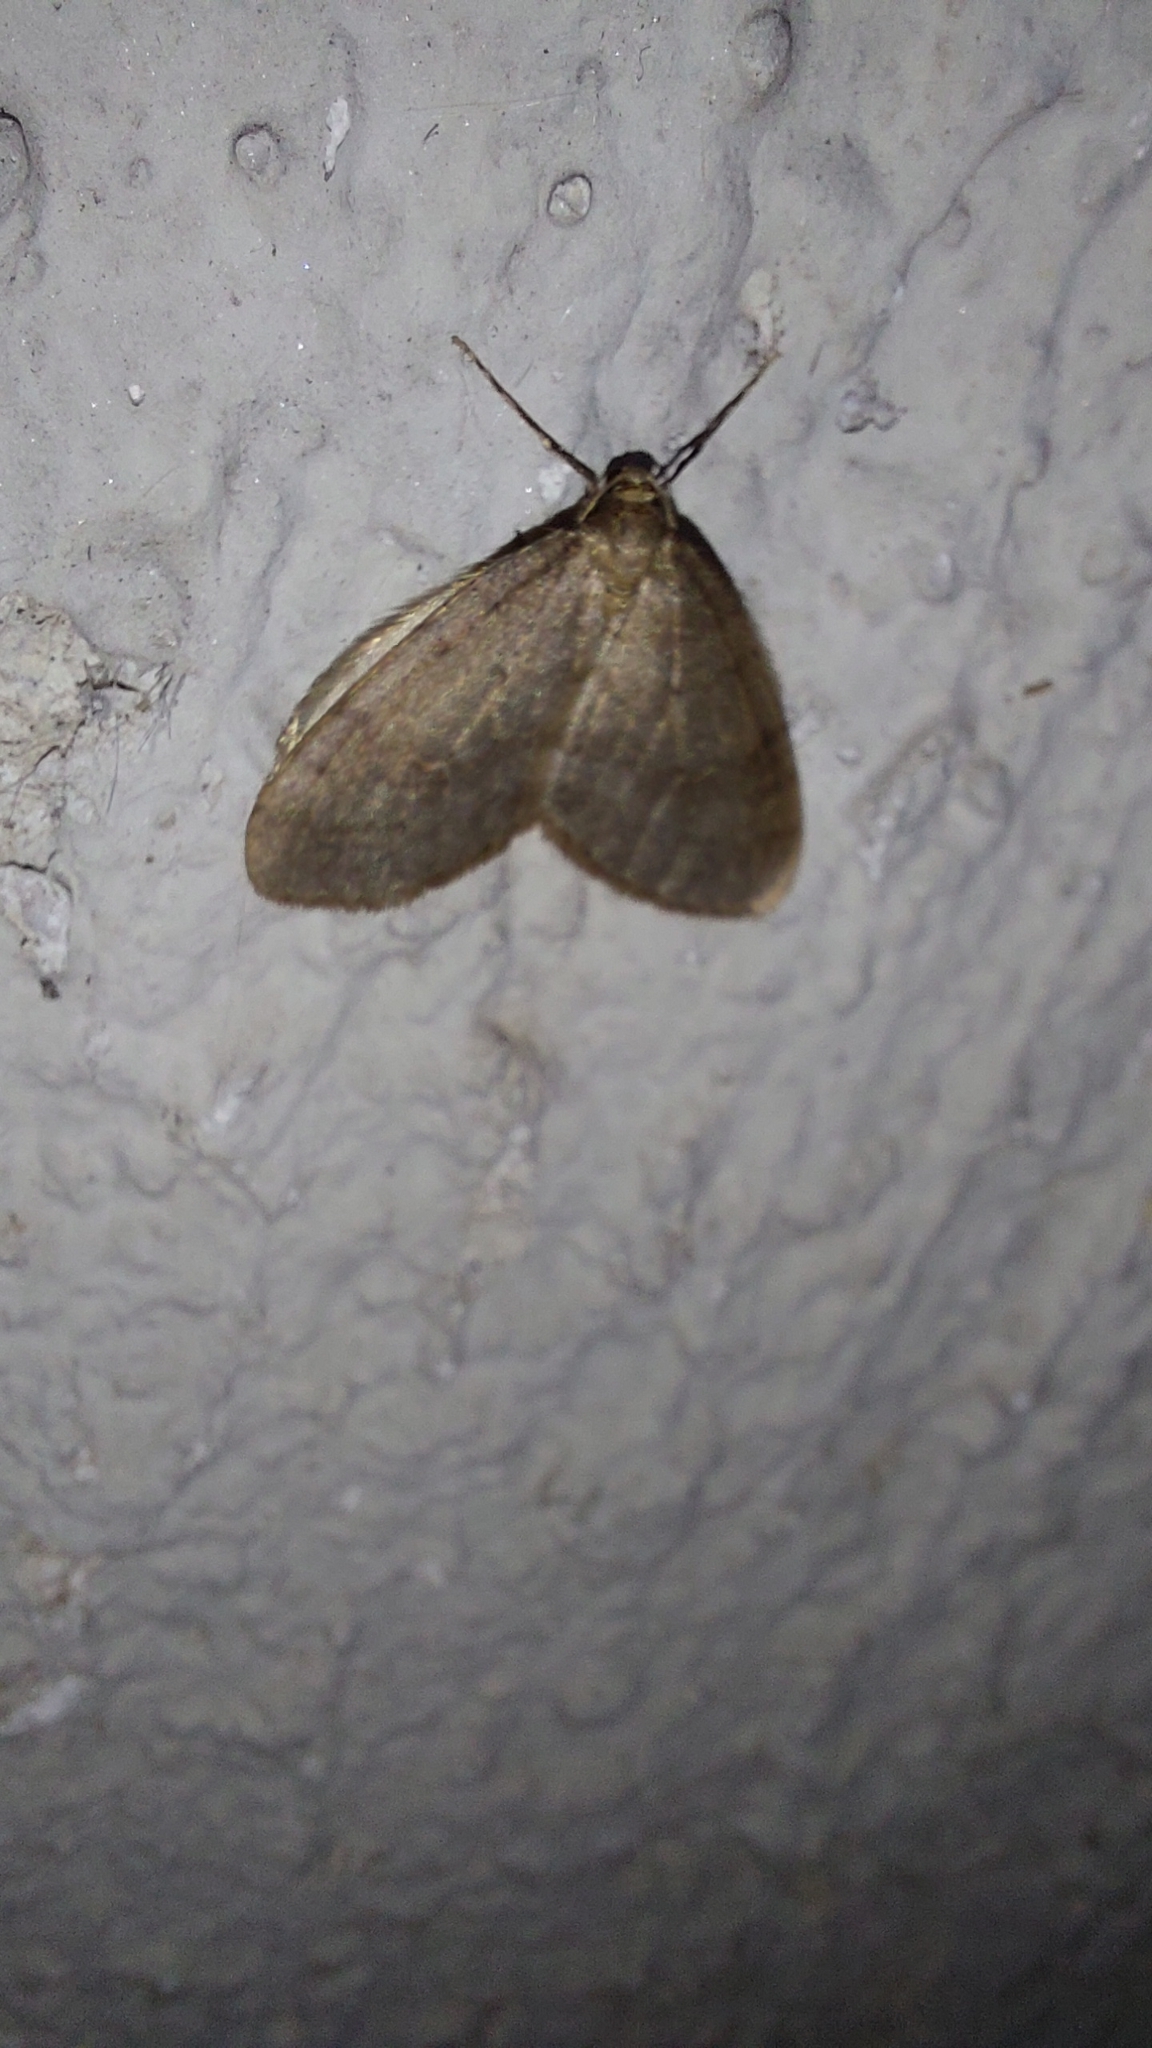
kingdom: Animalia
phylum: Arthropoda
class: Insecta
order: Lepidoptera
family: Geometridae
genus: Operophtera
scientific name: Operophtera brumata
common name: Winter moth
